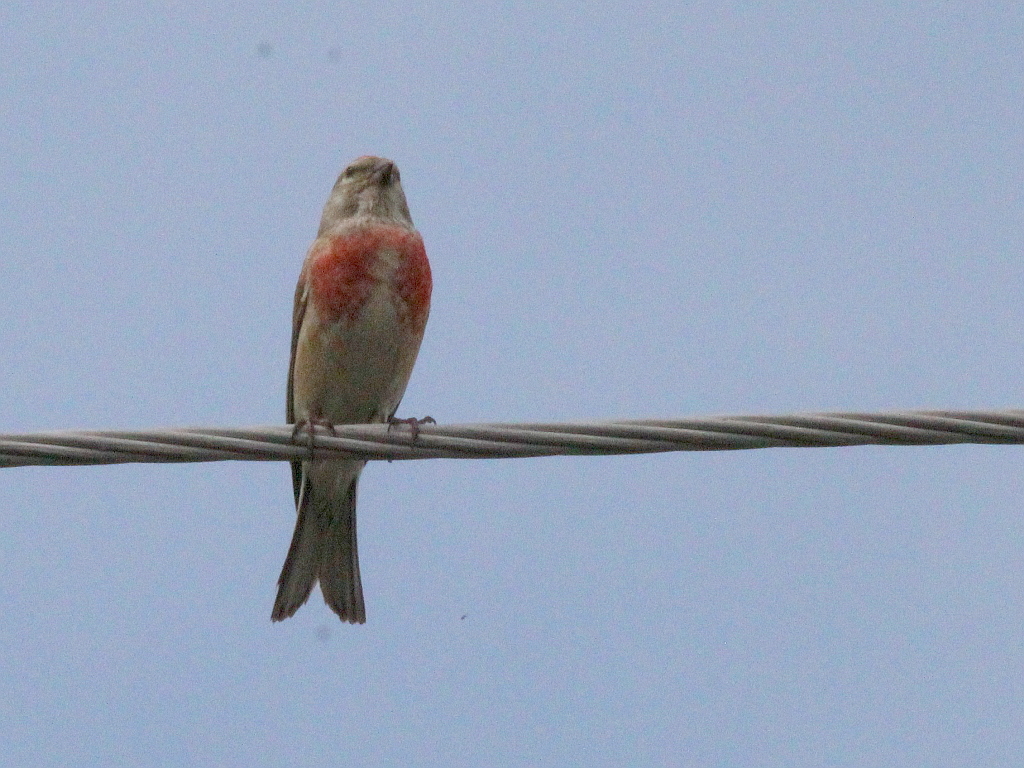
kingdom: Animalia
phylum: Chordata
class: Aves
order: Passeriformes
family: Fringillidae
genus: Linaria
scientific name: Linaria cannabina
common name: Common linnet
